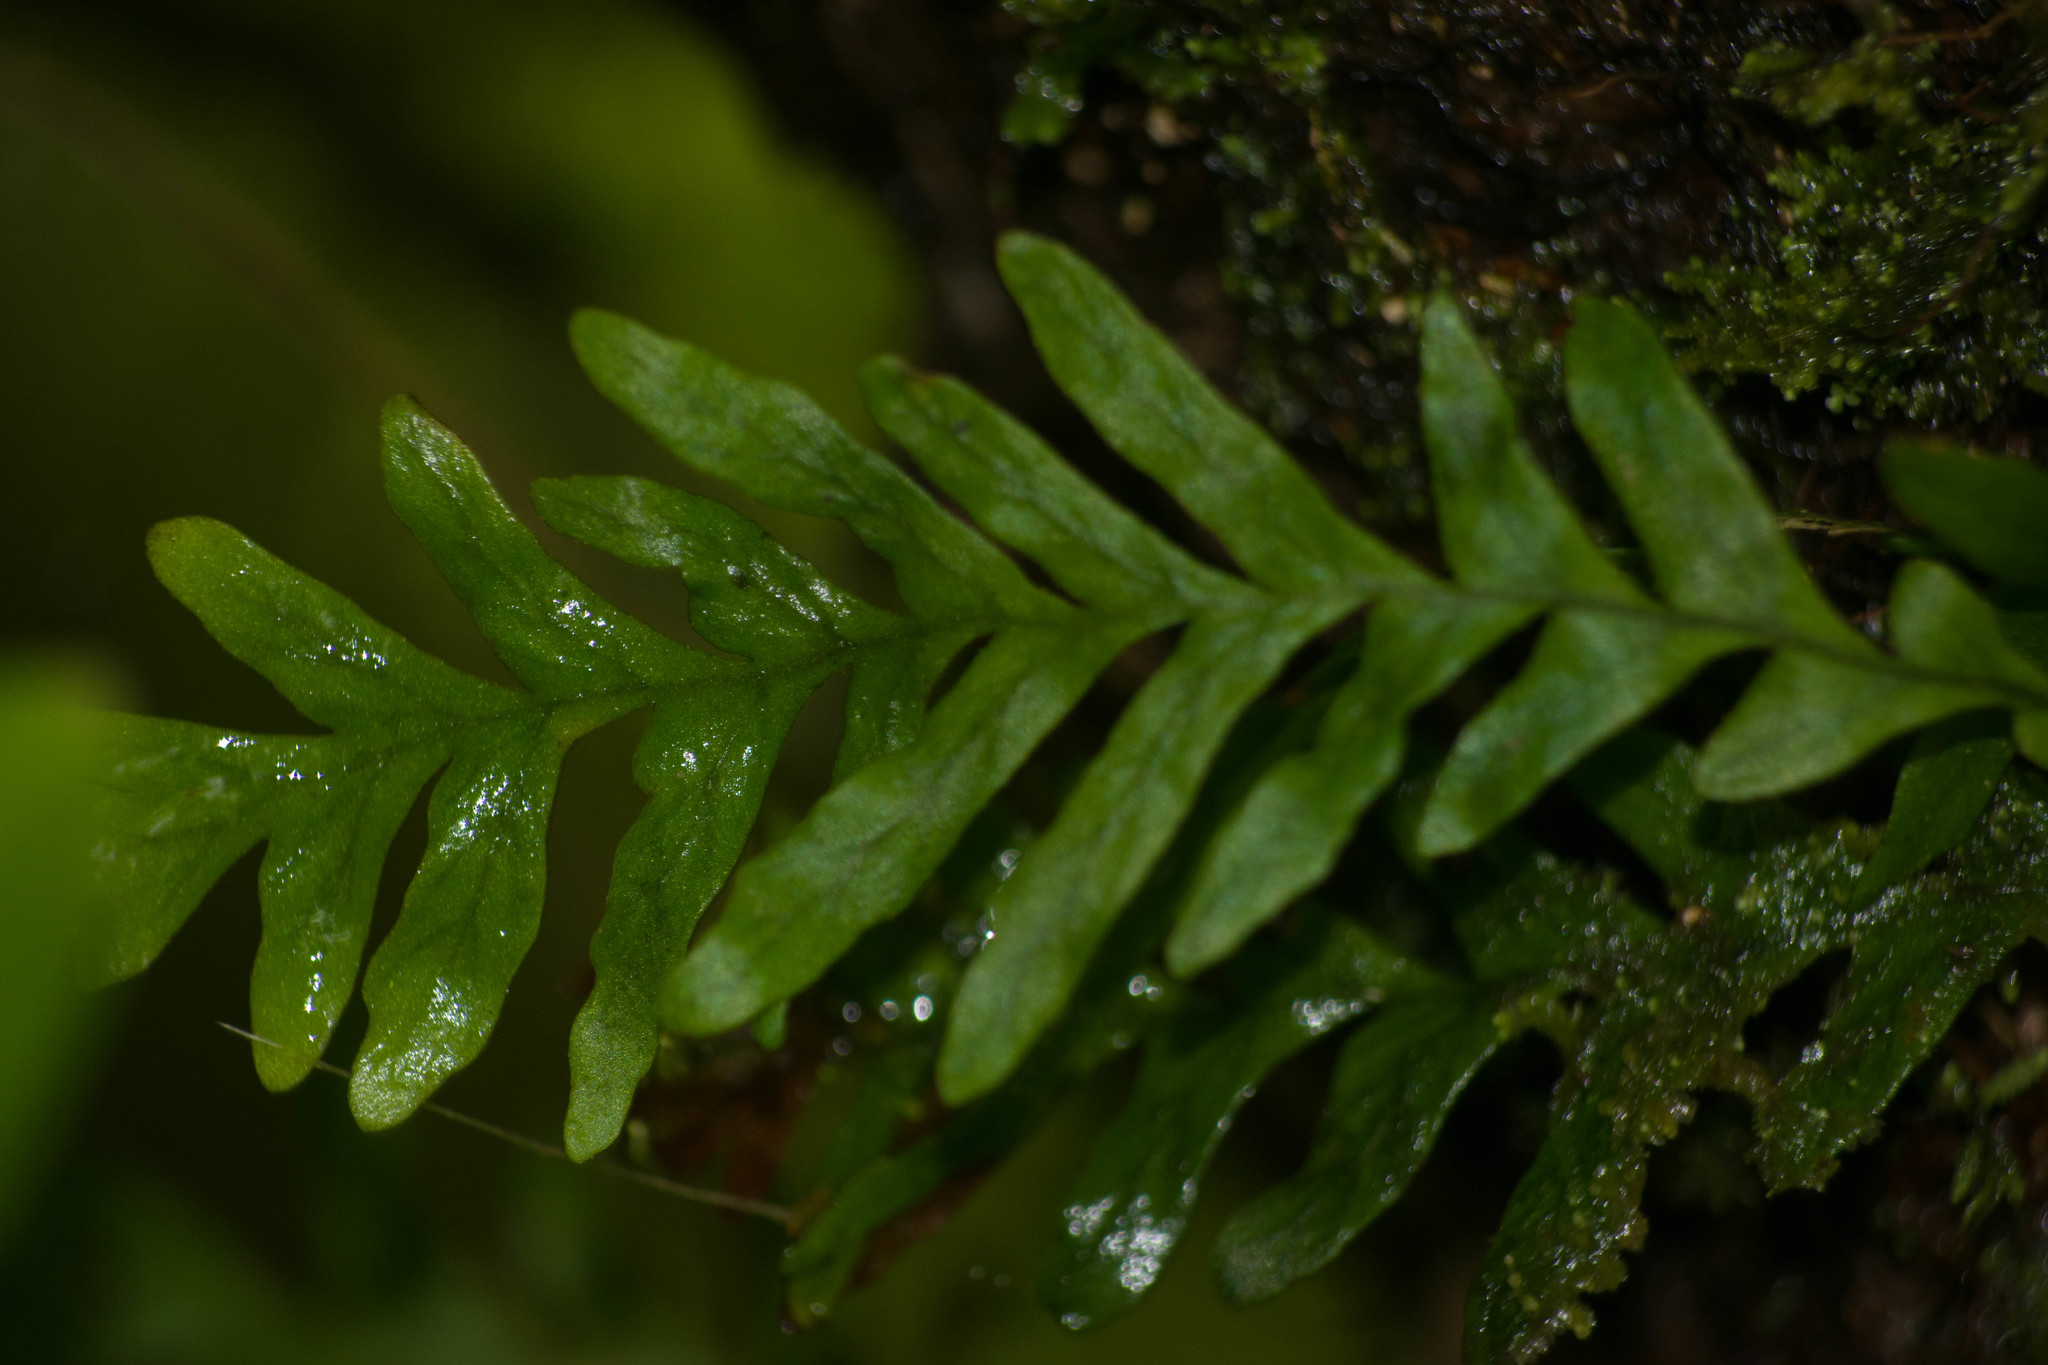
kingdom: Plantae
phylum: Tracheophyta
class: Polypodiopsida
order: Polypodiales
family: Polypodiaceae
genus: Adenophorus
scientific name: Adenophorus pinnatifidus
